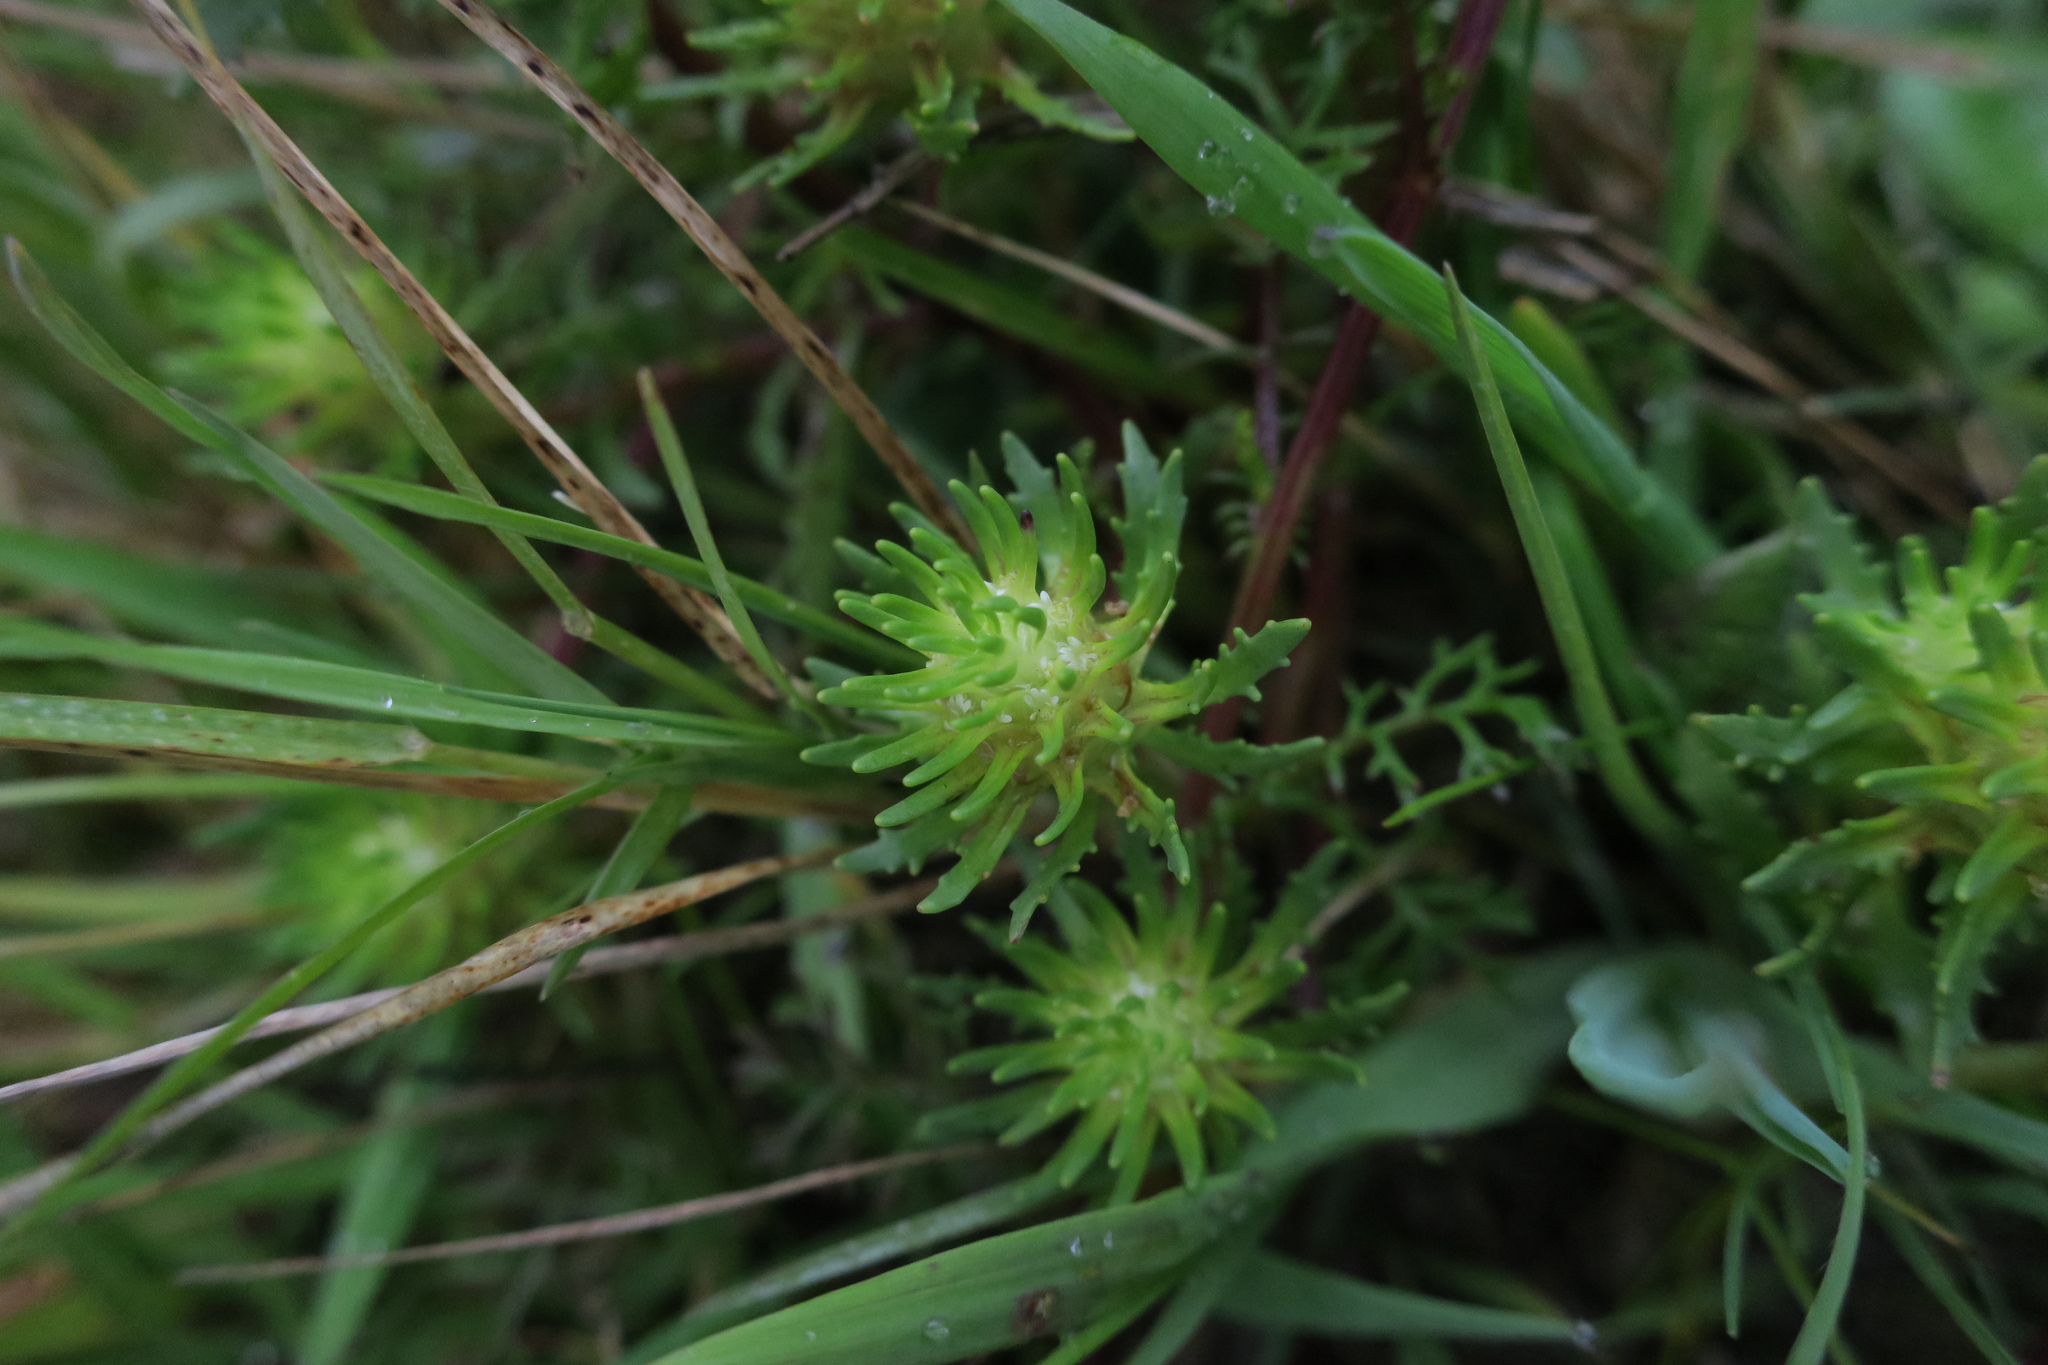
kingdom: Plantae
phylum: Tracheophyta
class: Magnoliopsida
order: Lamiales
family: Scrophulariaceae
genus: Dischisma
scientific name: Dischisma capitatum
